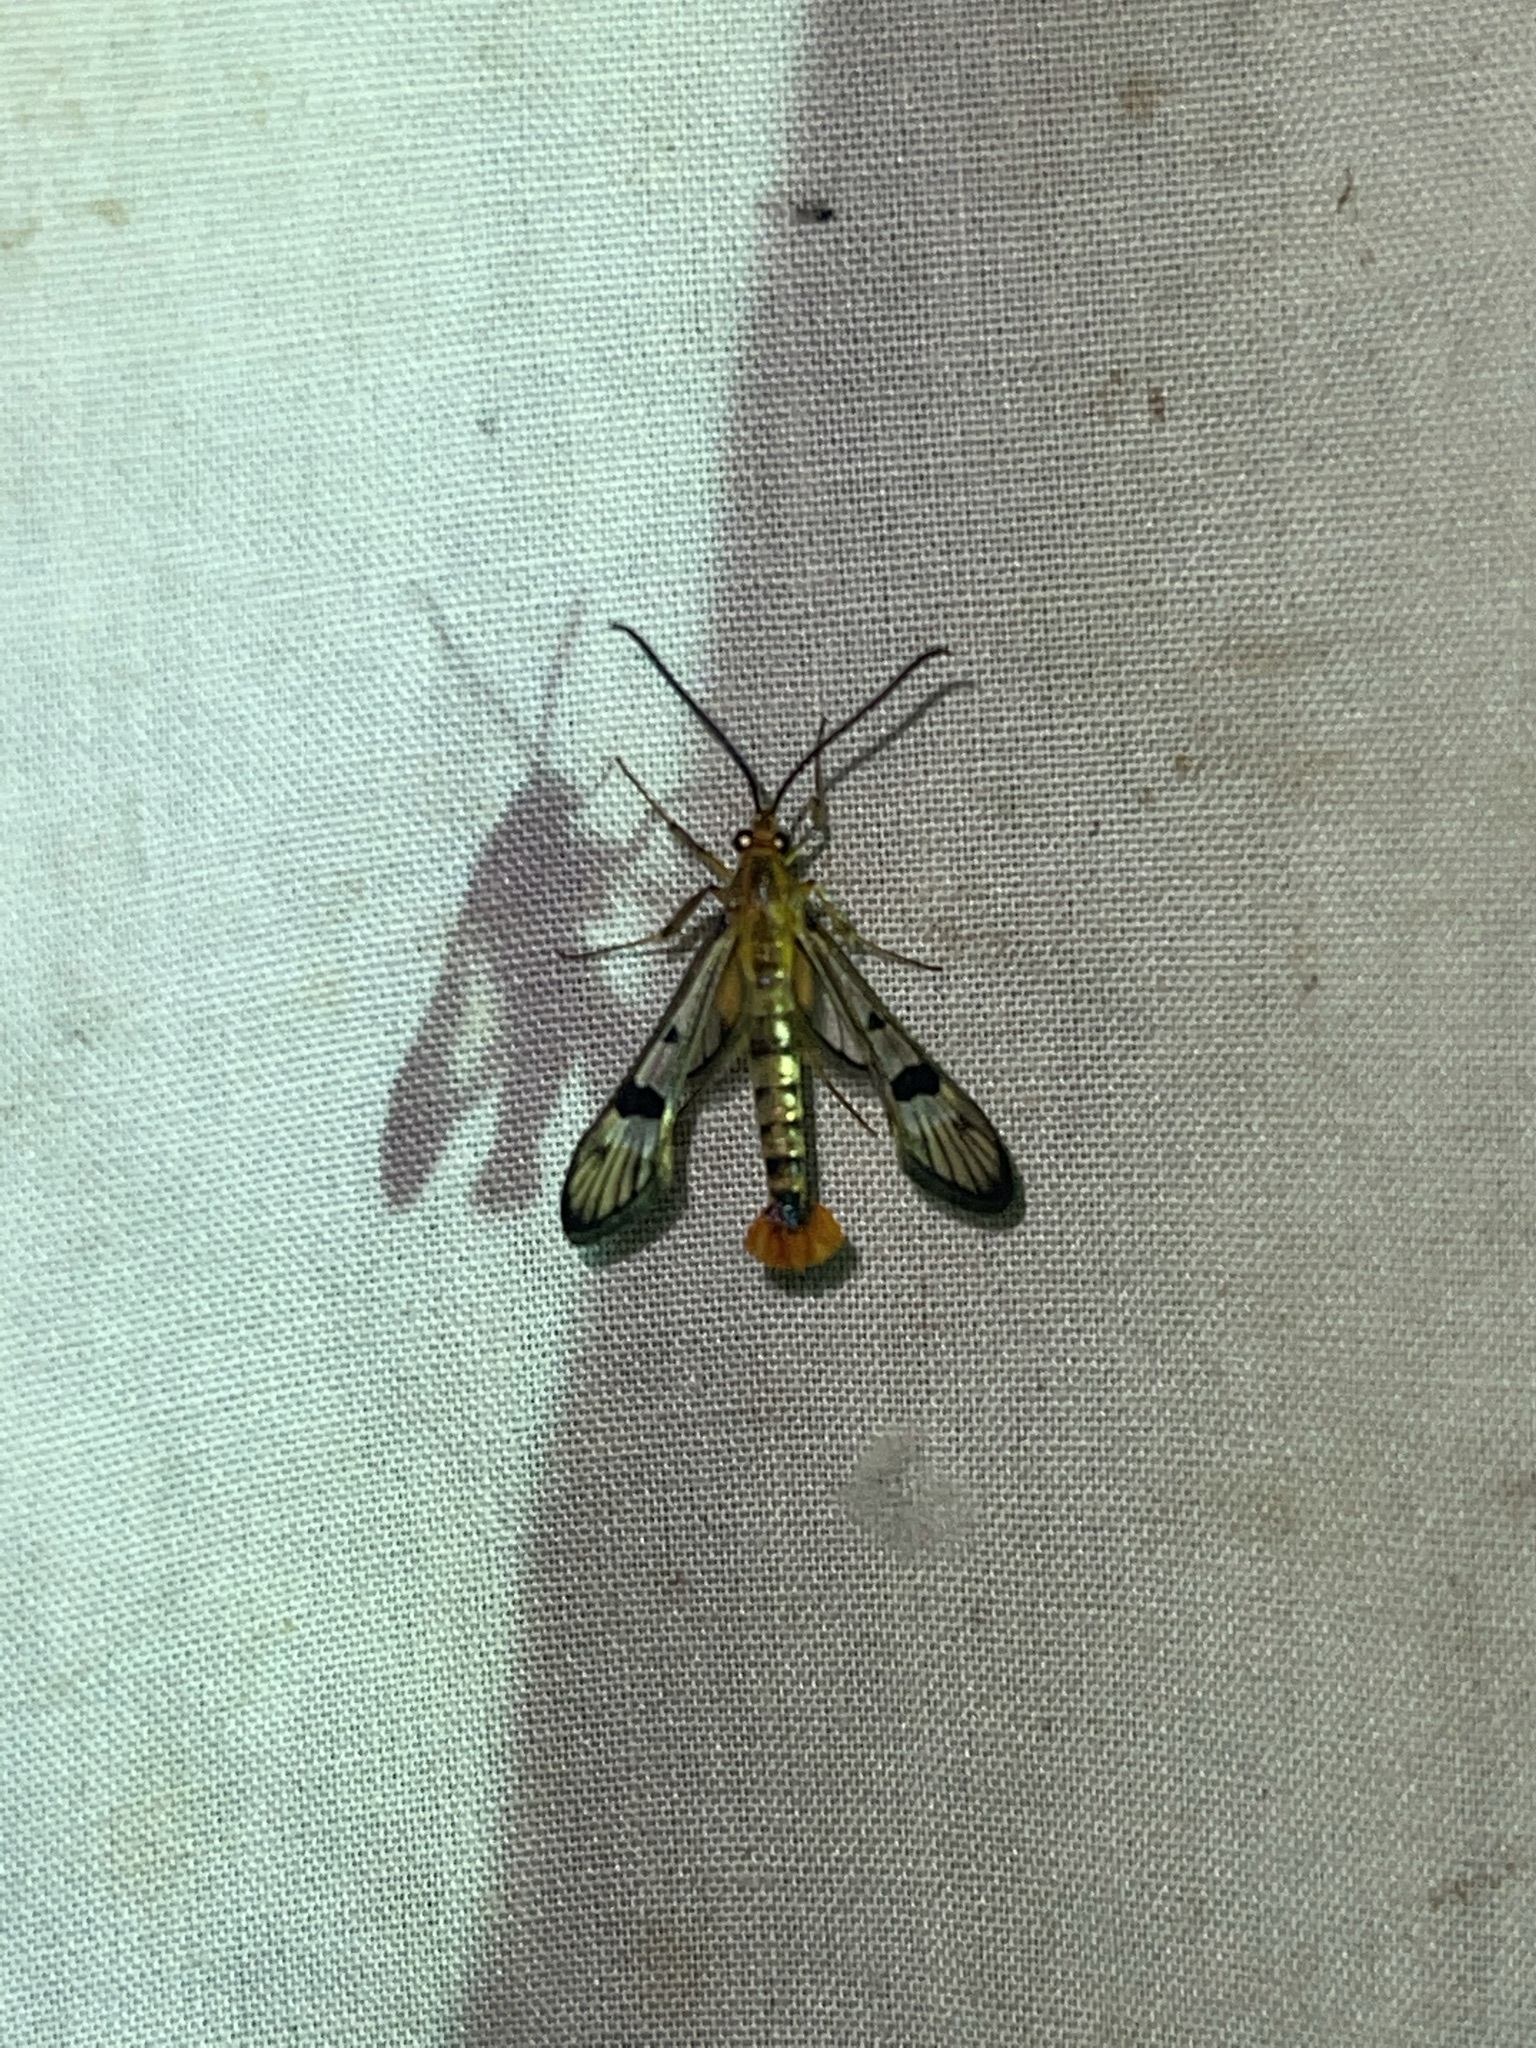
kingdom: Animalia
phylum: Arthropoda
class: Insecta
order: Lepidoptera
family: Sesiidae
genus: Synanthedon
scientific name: Synanthedon acerni
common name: Maple callus borer moth
